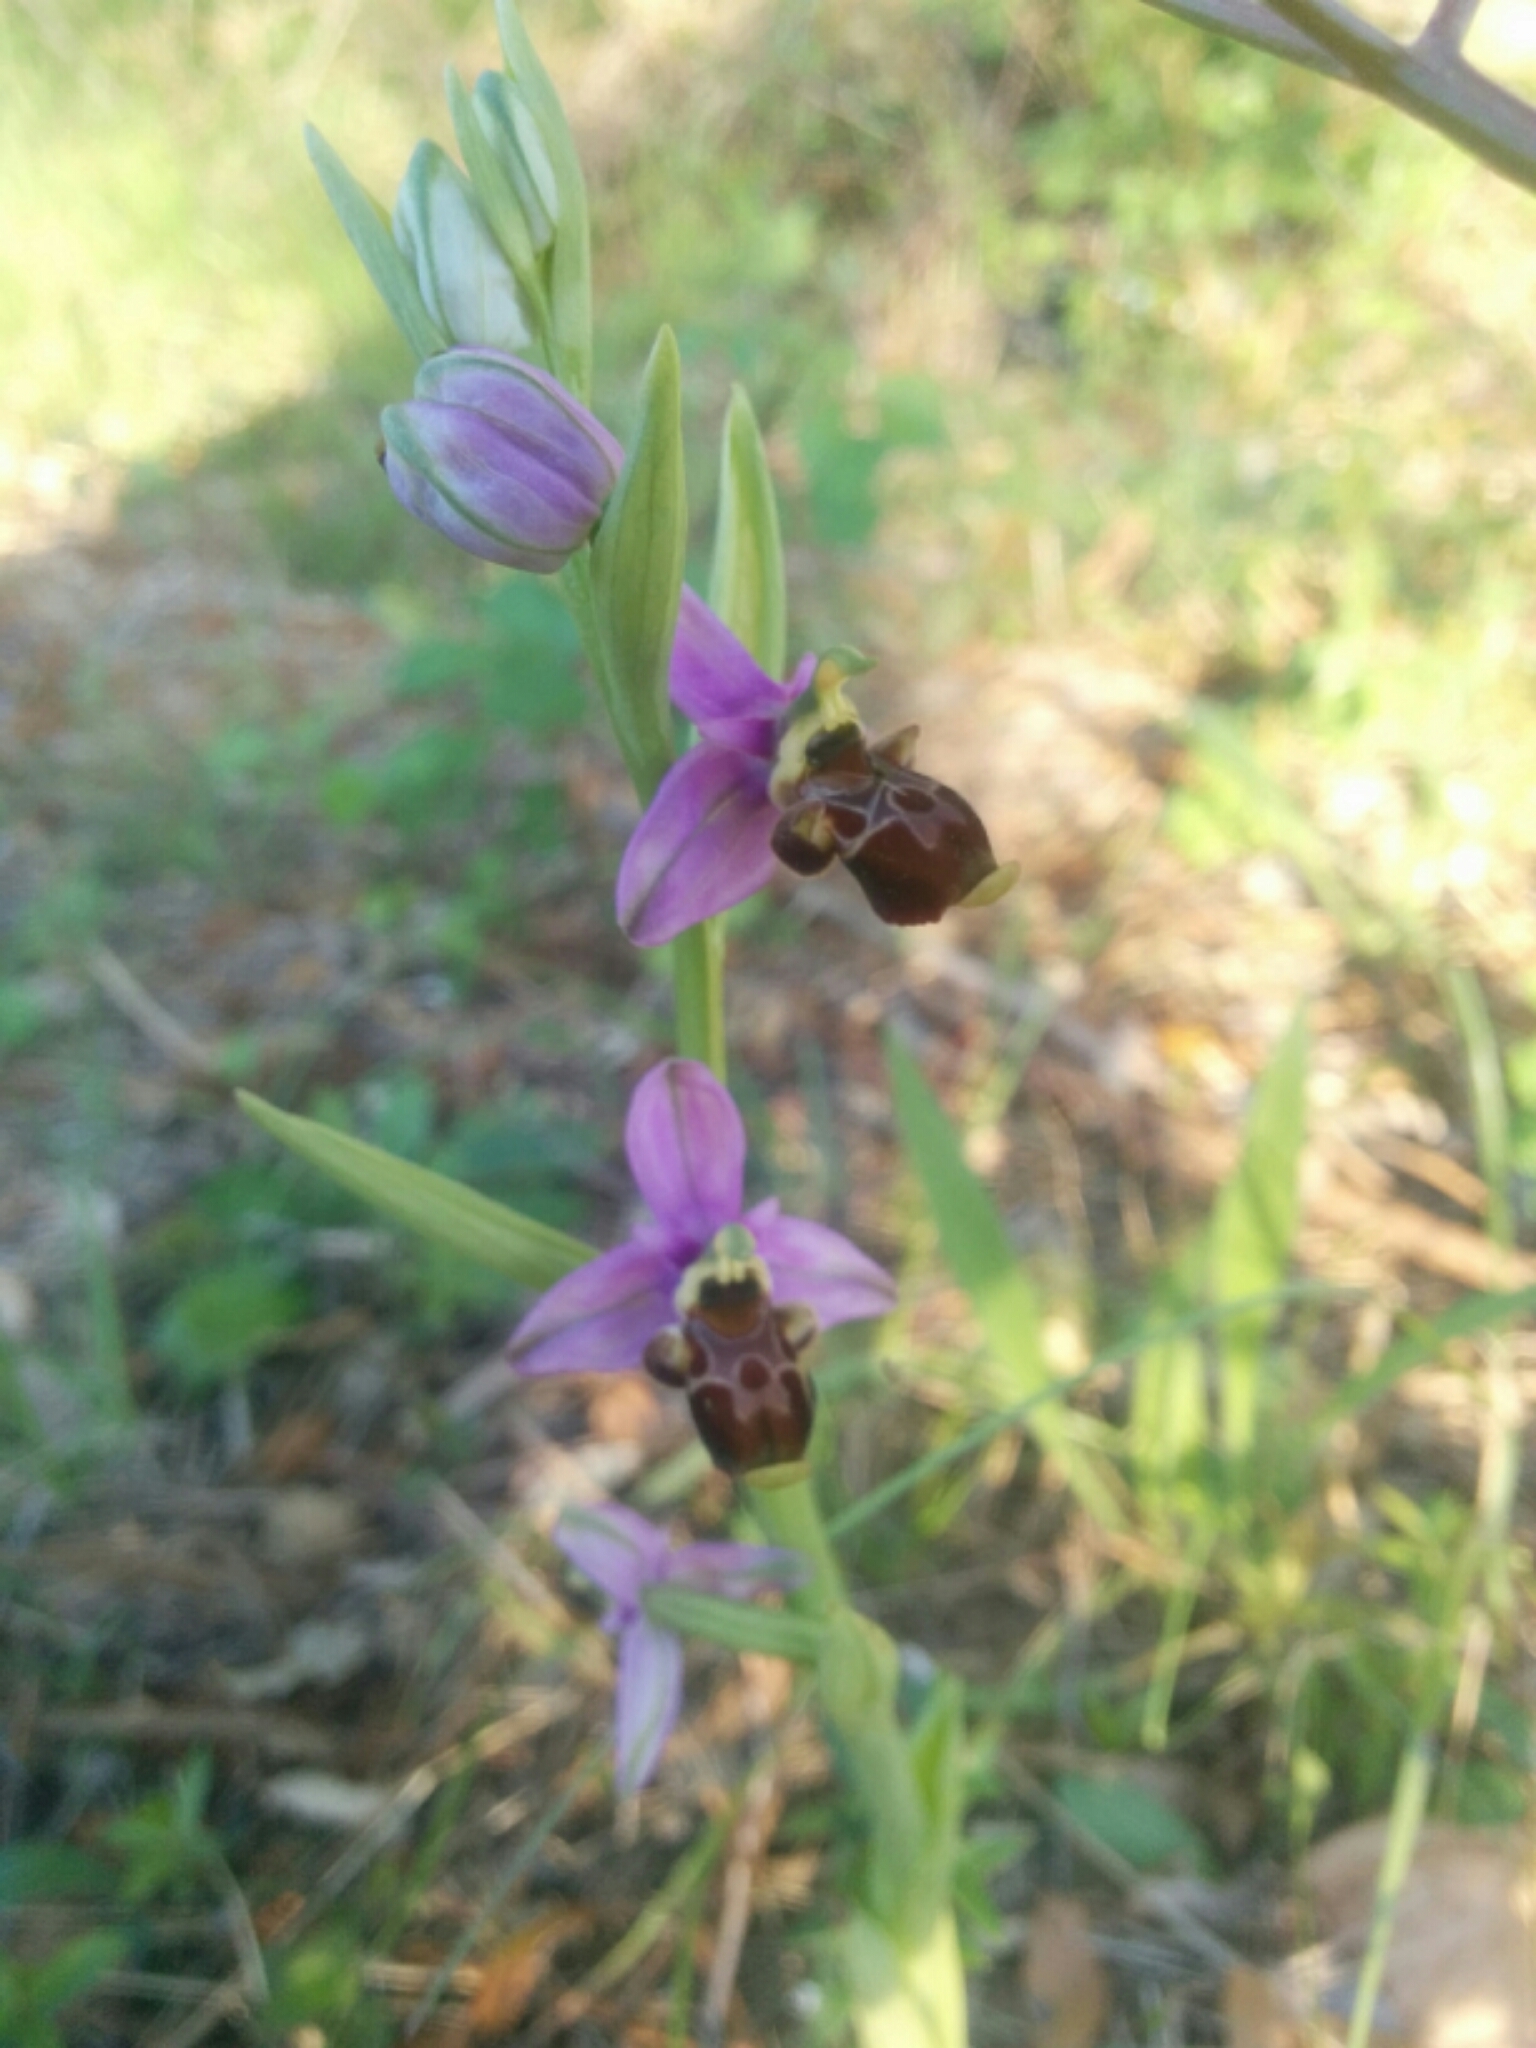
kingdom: Plantae
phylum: Tracheophyta
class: Liliopsida
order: Asparagales
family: Orchidaceae
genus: Ophrys
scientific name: Ophrys scolopax
